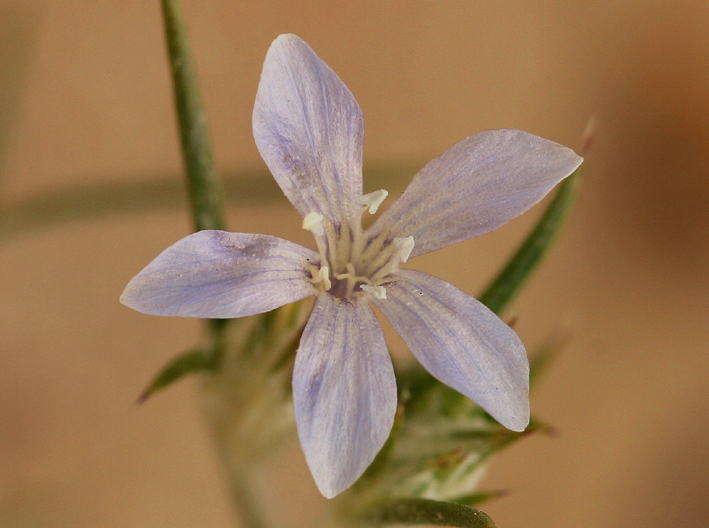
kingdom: Plantae
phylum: Tracheophyta
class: Magnoliopsida
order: Ericales
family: Polemoniaceae
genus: Eriastrum
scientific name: Eriastrum wilcoxii
